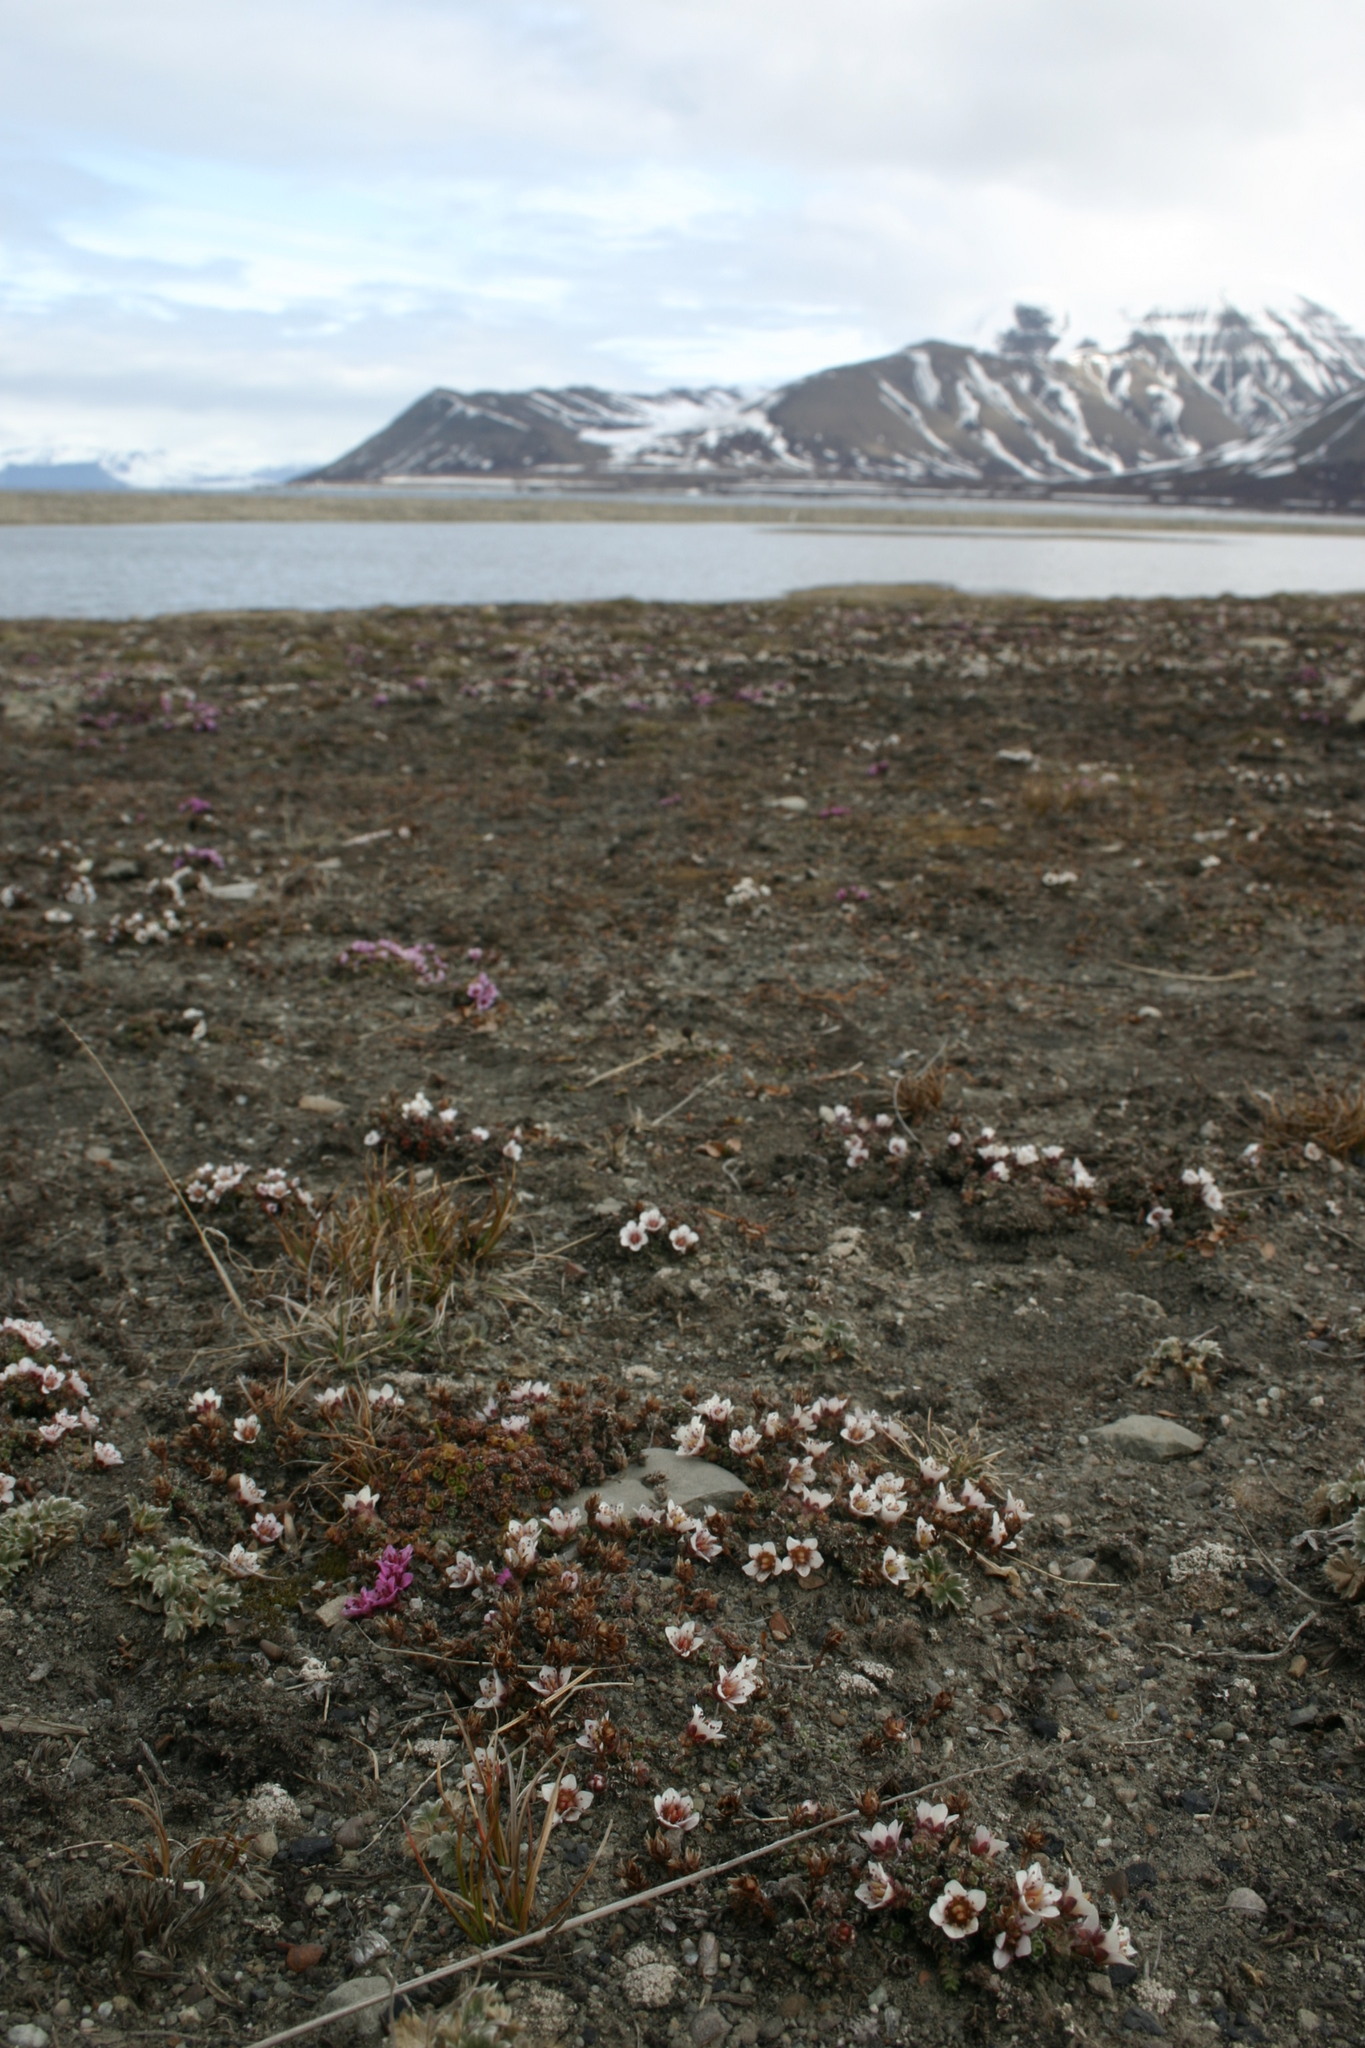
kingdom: Plantae
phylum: Tracheophyta
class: Magnoliopsida
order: Saxifragales
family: Saxifragaceae
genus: Saxifraga
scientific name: Saxifraga oppositifolia
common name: Purple saxifrage
